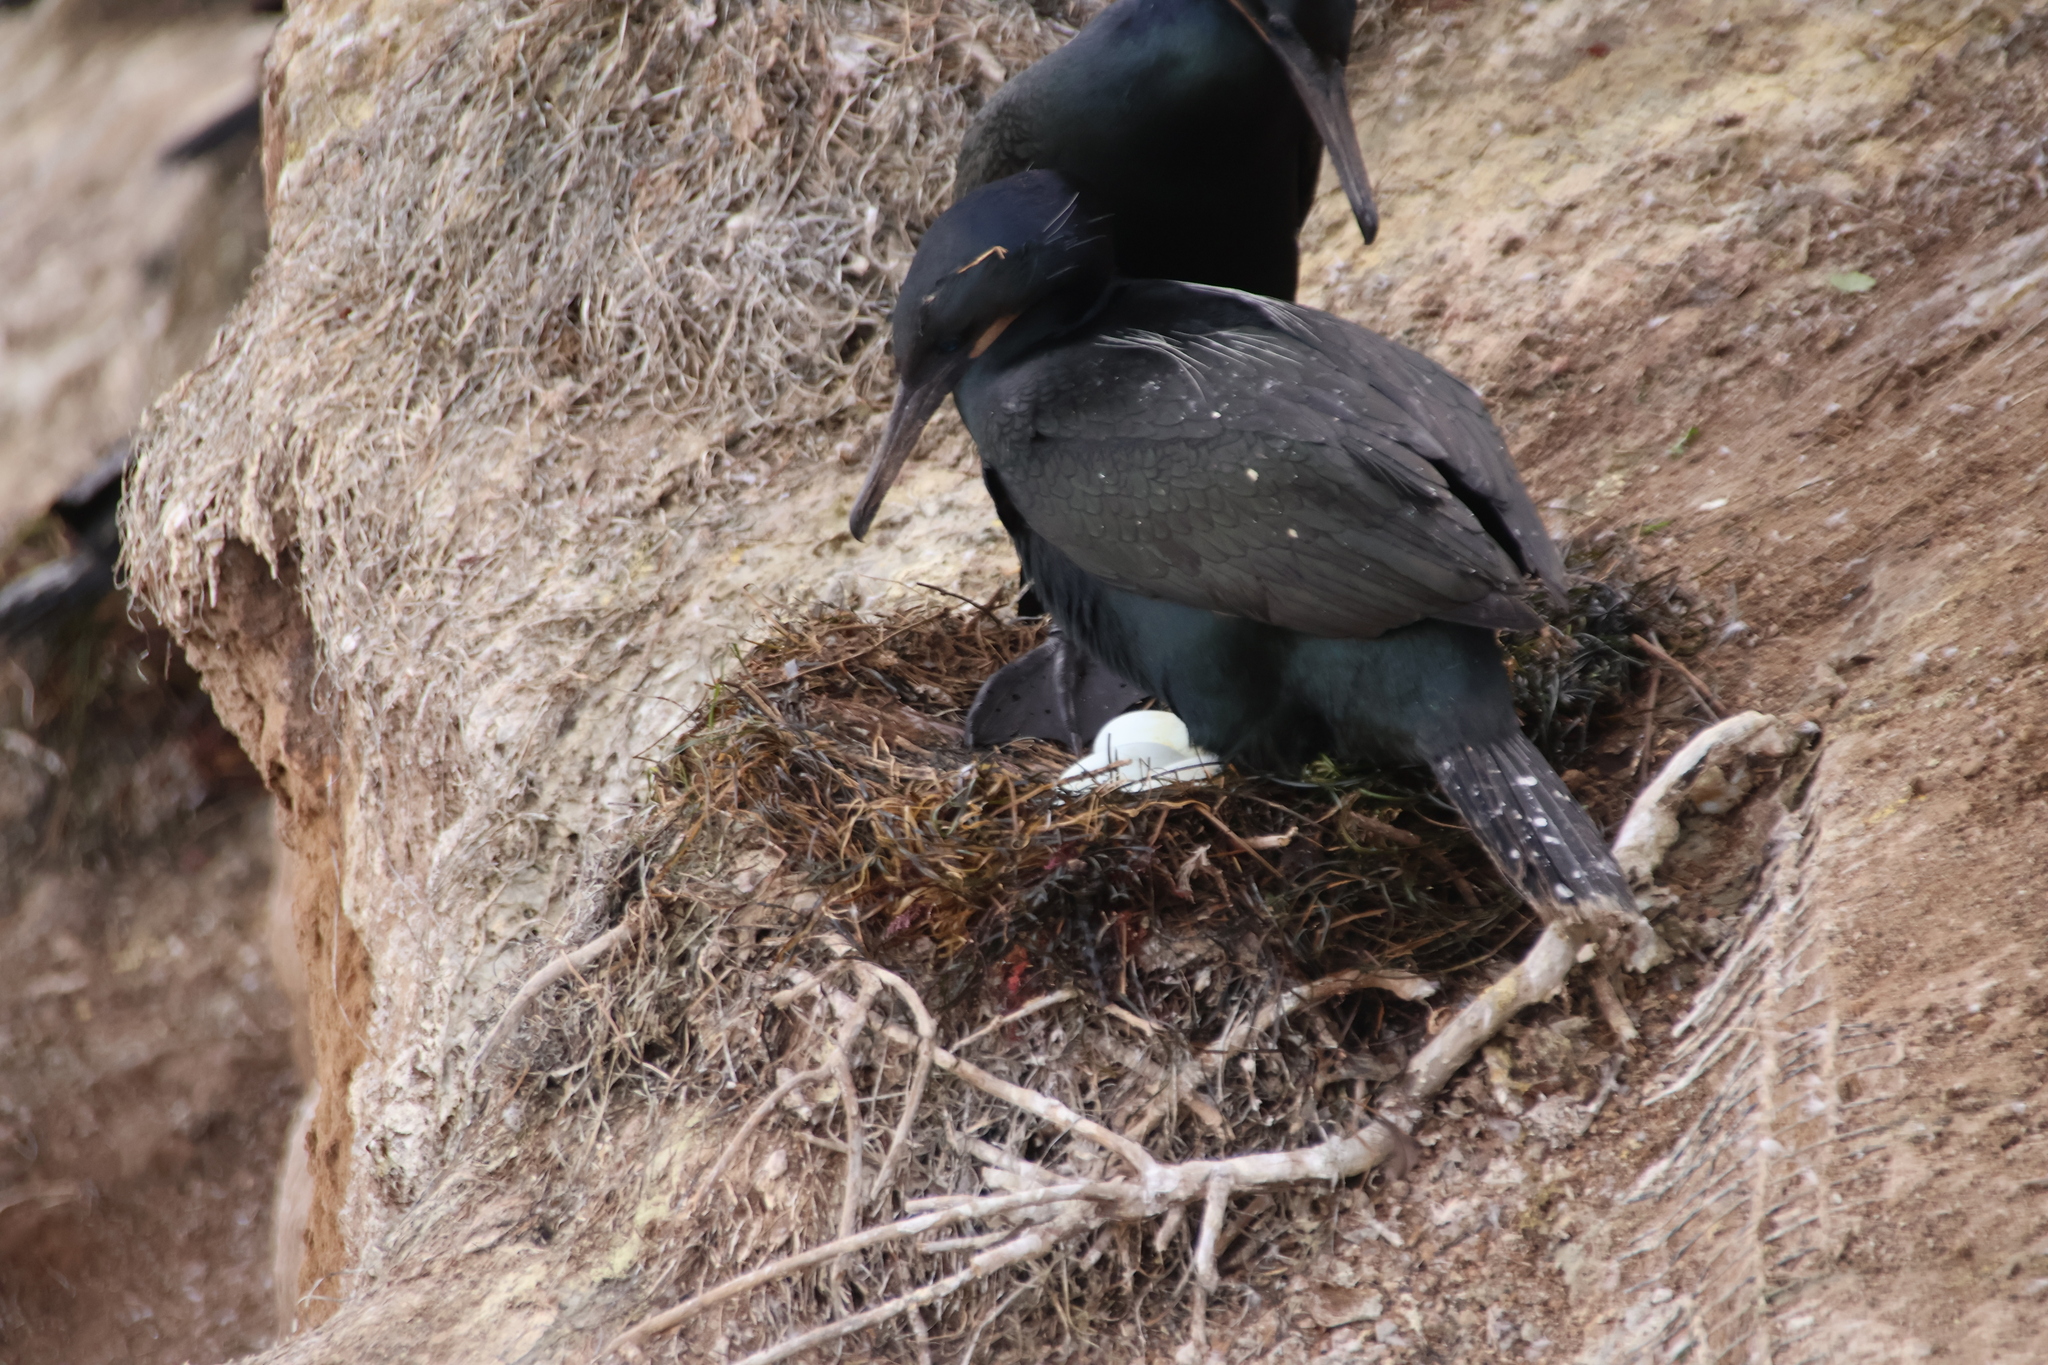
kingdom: Animalia
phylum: Chordata
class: Aves
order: Suliformes
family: Phalacrocoracidae
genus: Urile
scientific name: Urile penicillatus
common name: Brandt's cormorant
